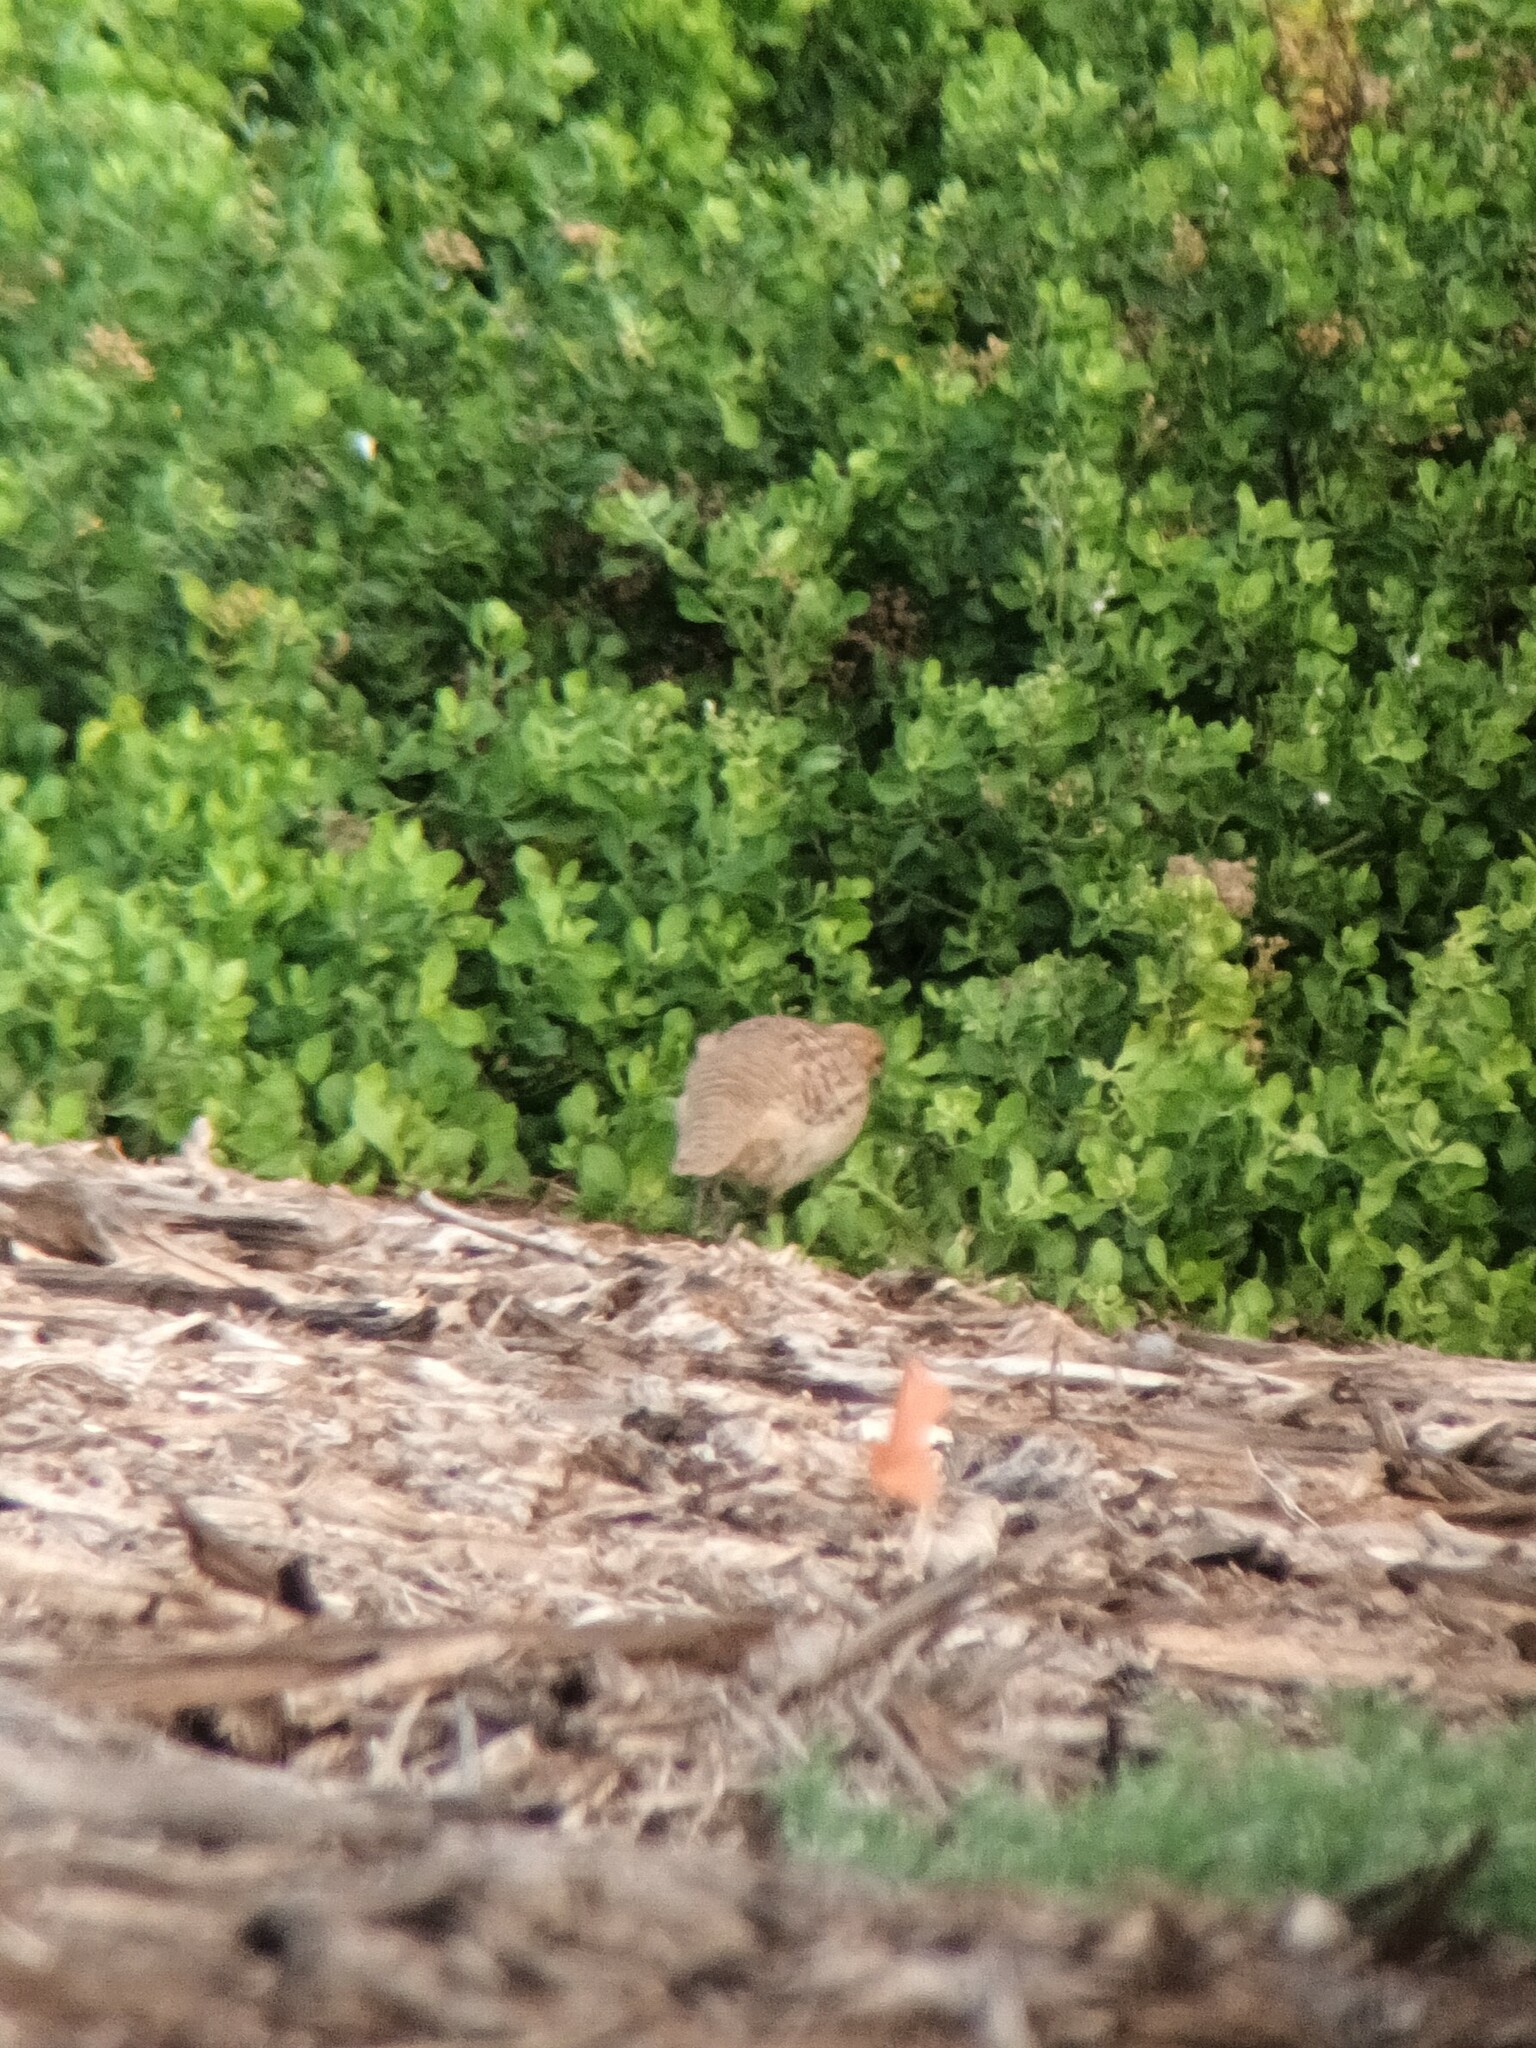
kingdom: Animalia
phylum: Chordata
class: Aves
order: Galliformes
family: Phasianidae
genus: Ortygornis
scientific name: Ortygornis pondicerianus
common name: Grey francolin
